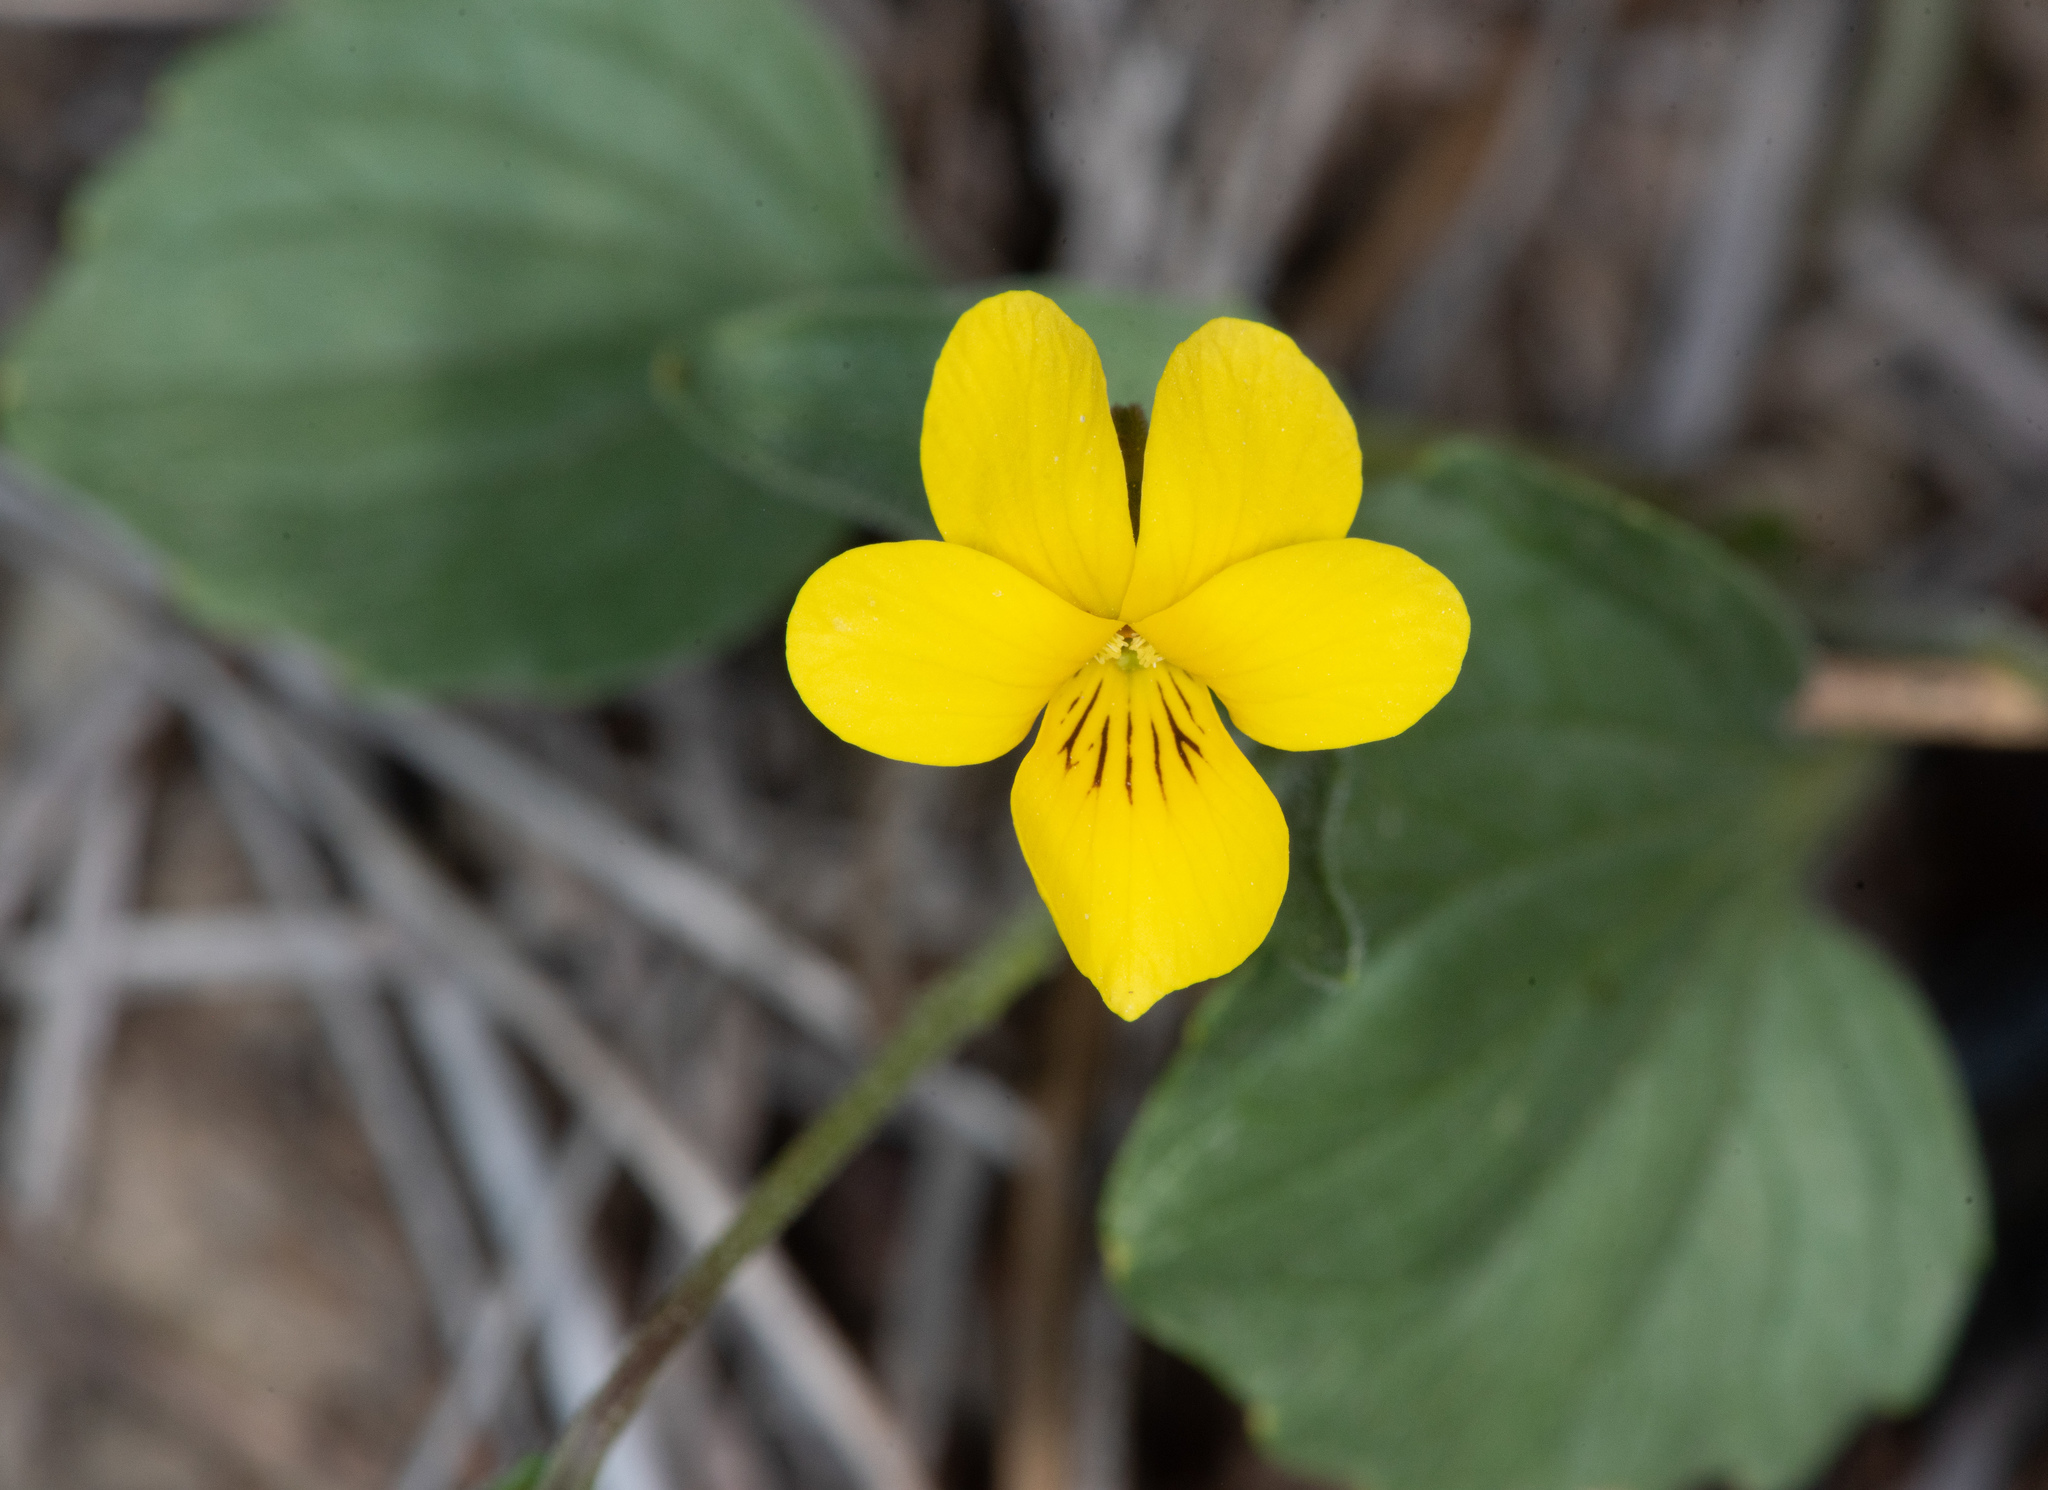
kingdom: Plantae
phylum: Tracheophyta
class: Magnoliopsida
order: Malpighiales
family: Violaceae
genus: Viola
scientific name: Viola purpurea
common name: Pine violet
